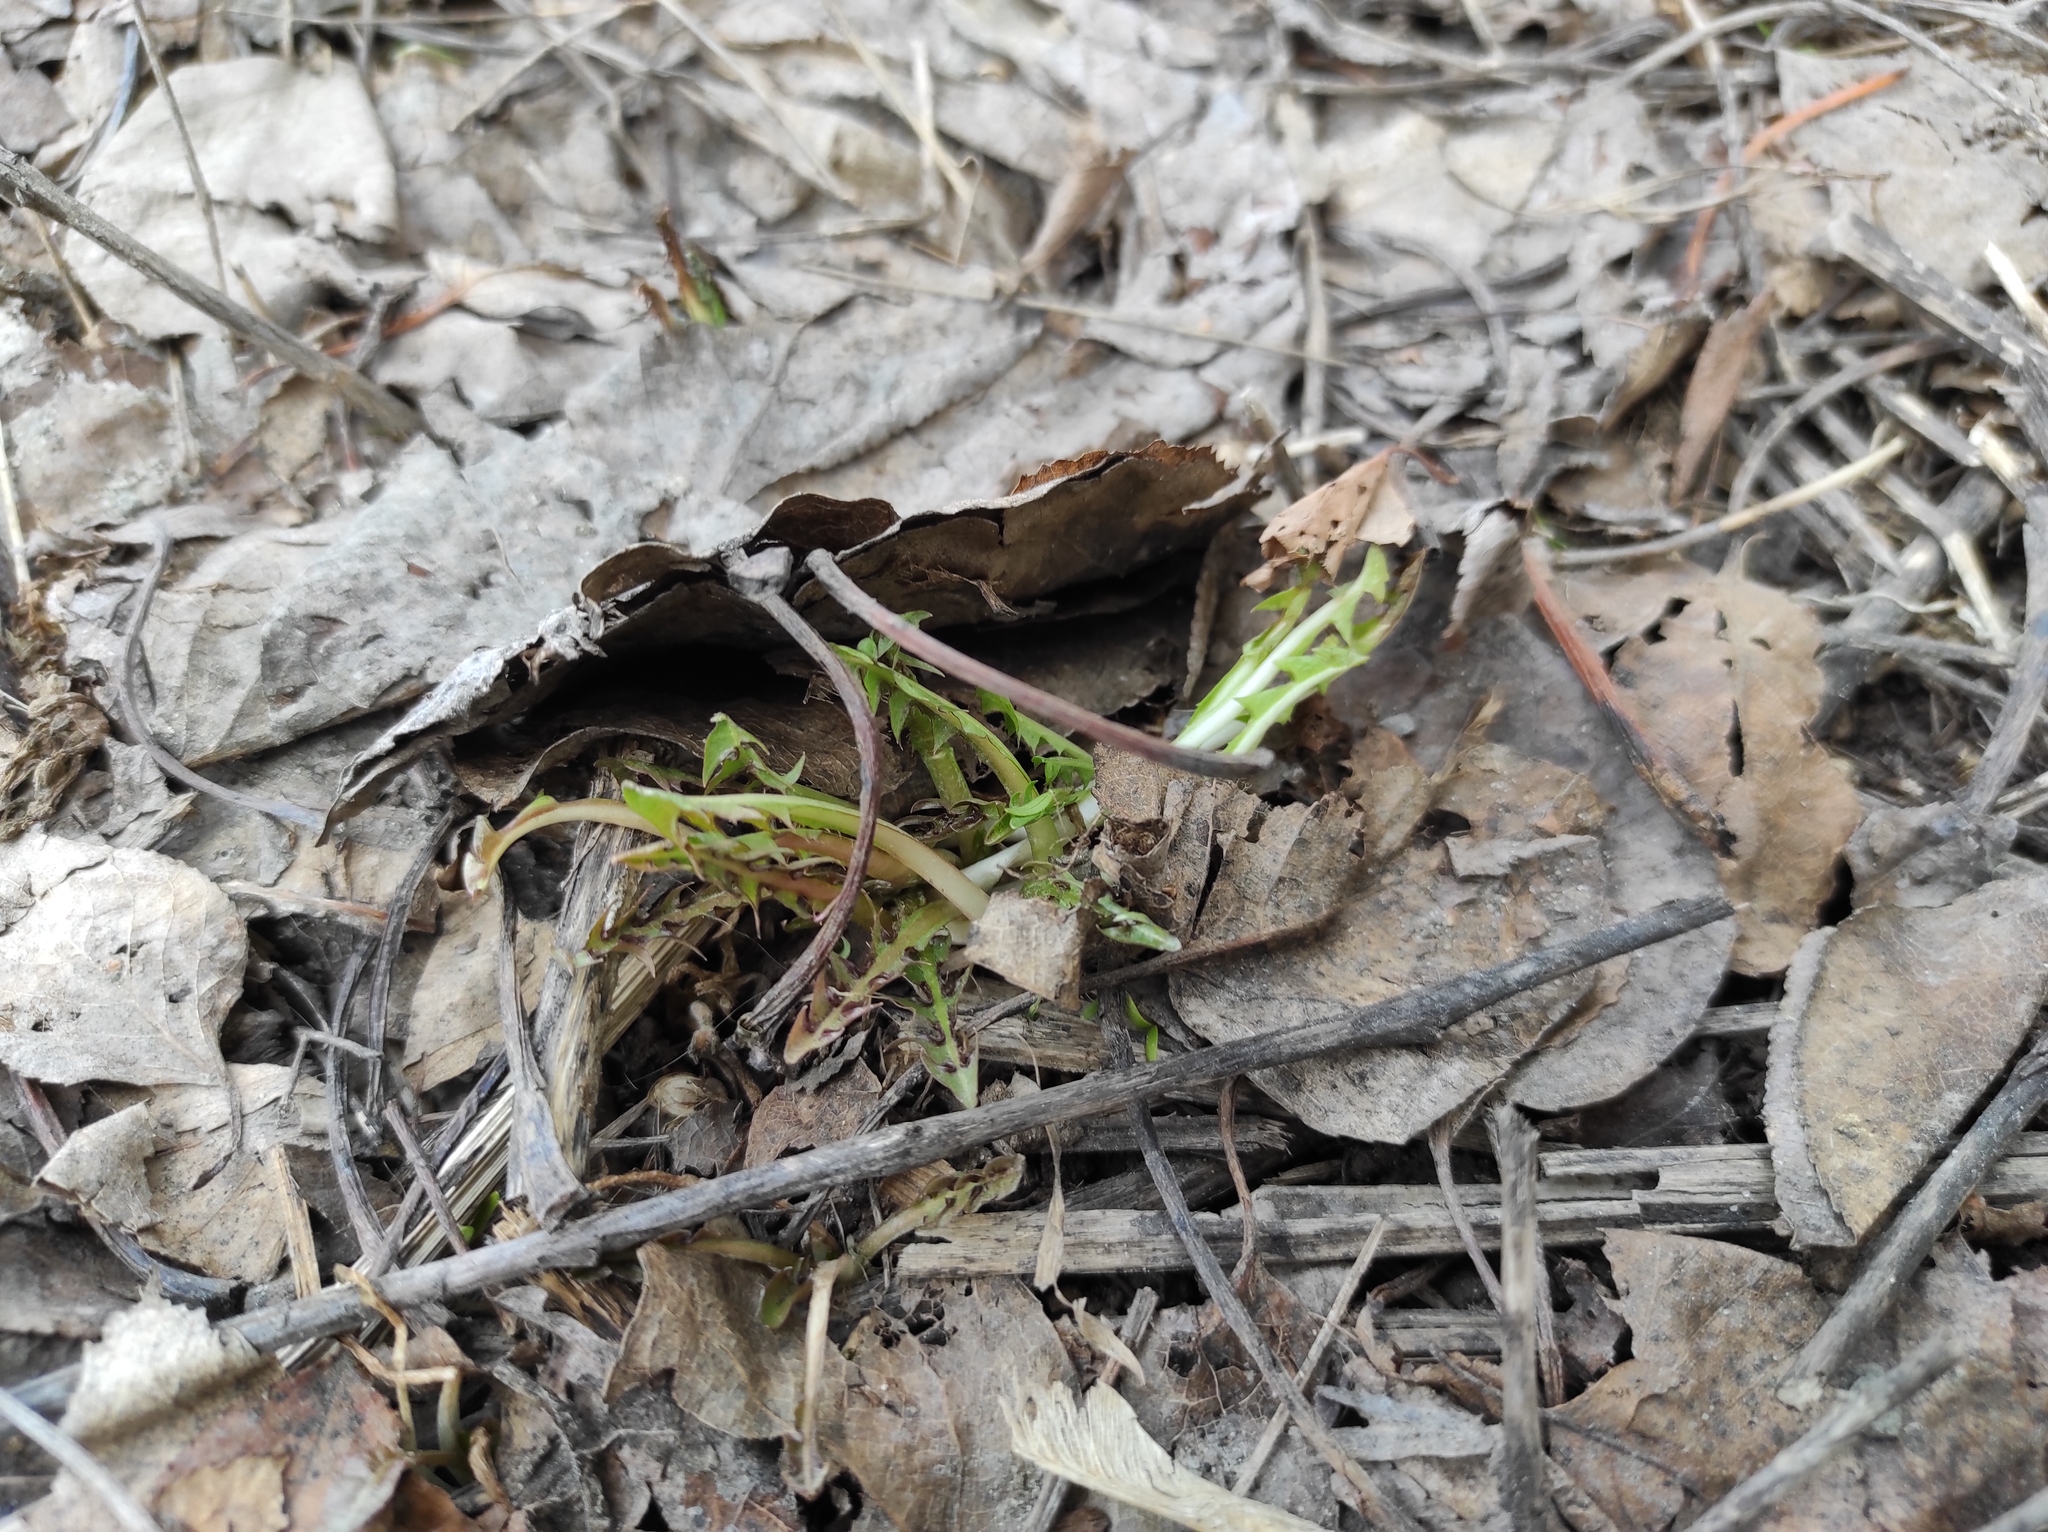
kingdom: Plantae
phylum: Tracheophyta
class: Magnoliopsida
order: Asterales
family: Asteraceae
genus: Taraxacum
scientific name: Taraxacum officinale
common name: Common dandelion
